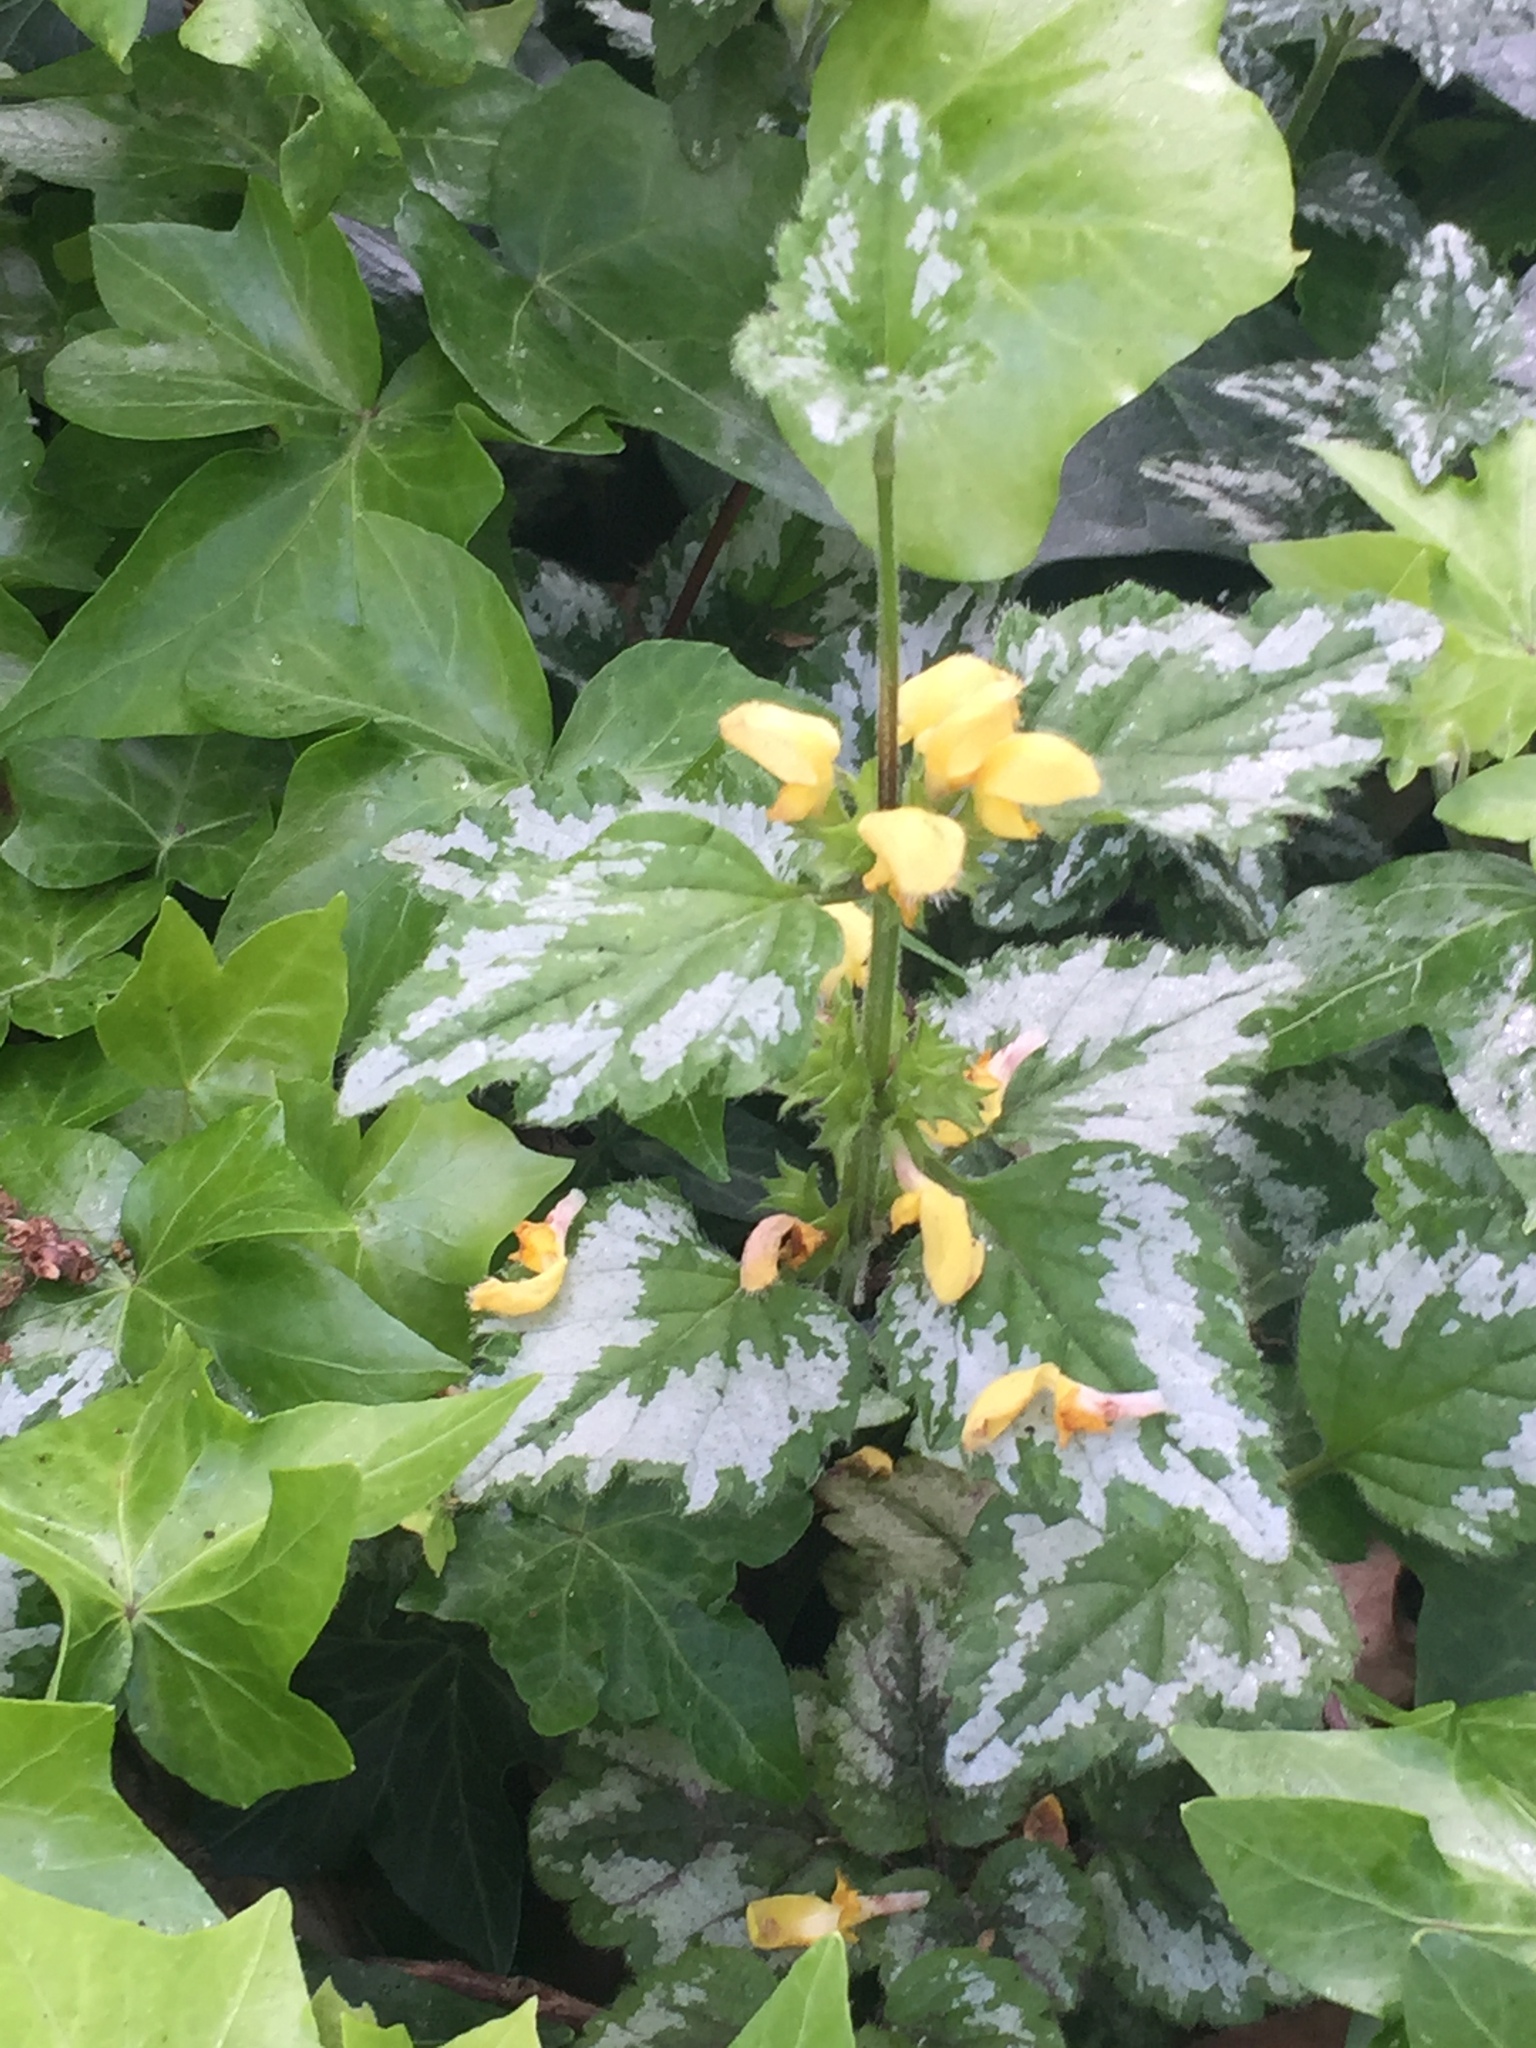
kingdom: Plantae
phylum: Tracheophyta
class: Magnoliopsida
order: Lamiales
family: Lamiaceae
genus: Lamium
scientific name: Lamium galeobdolon
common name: Yellow archangel
